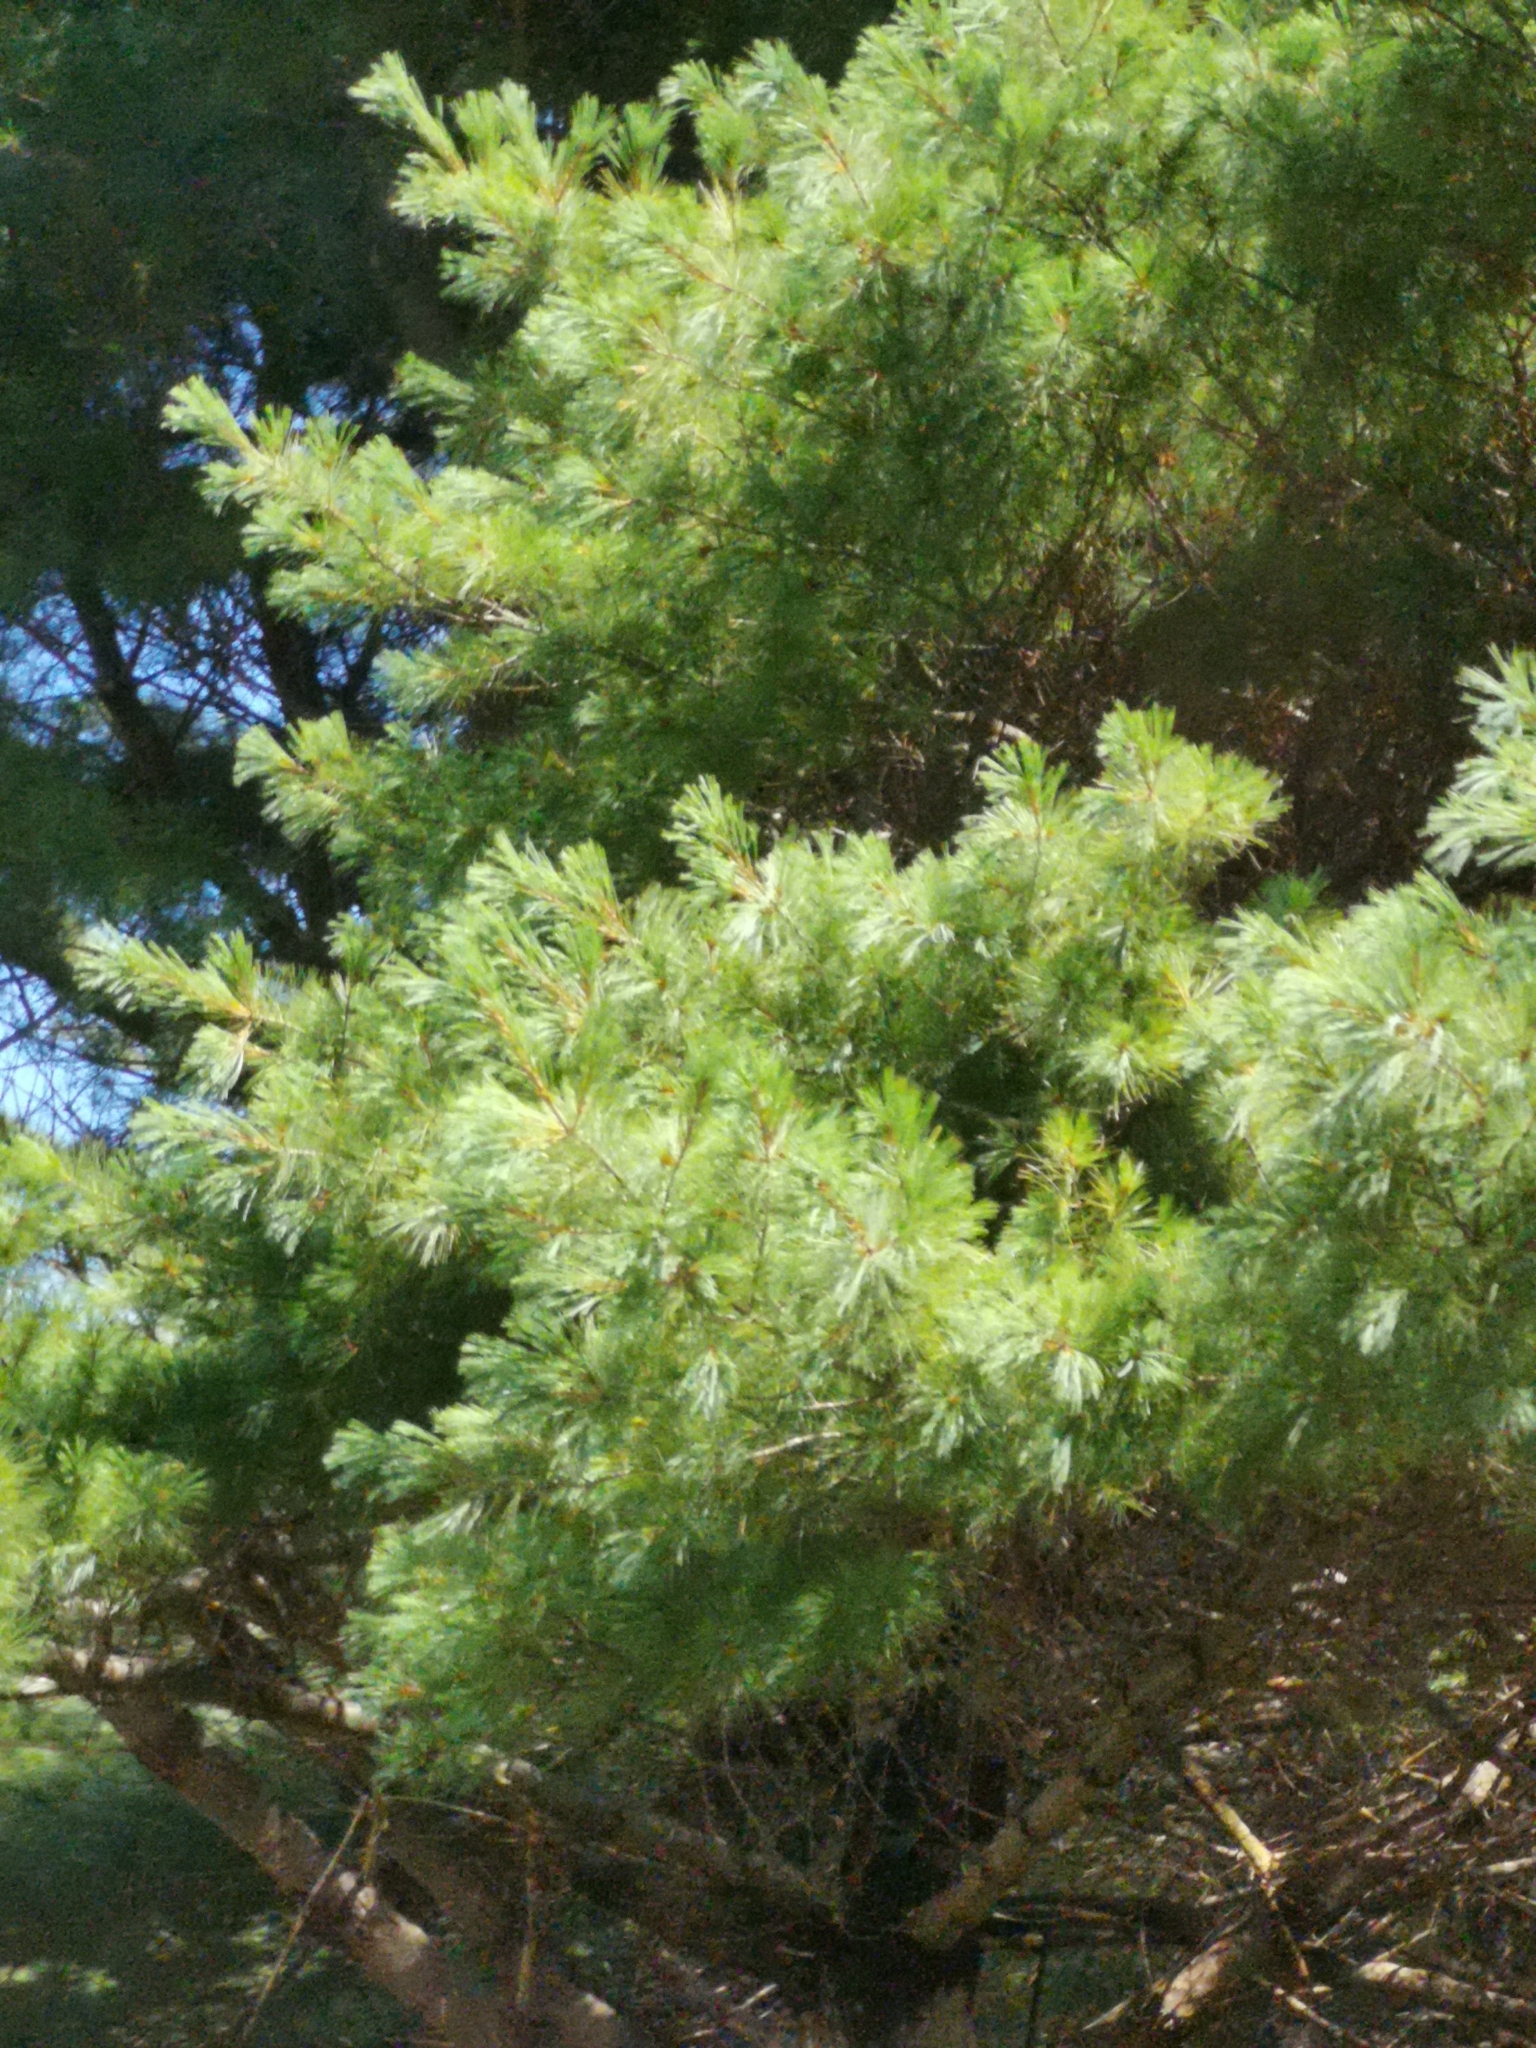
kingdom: Plantae
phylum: Tracheophyta
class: Pinopsida
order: Pinales
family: Pinaceae
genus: Pinus
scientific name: Pinus strobus
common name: Weymouth pine
